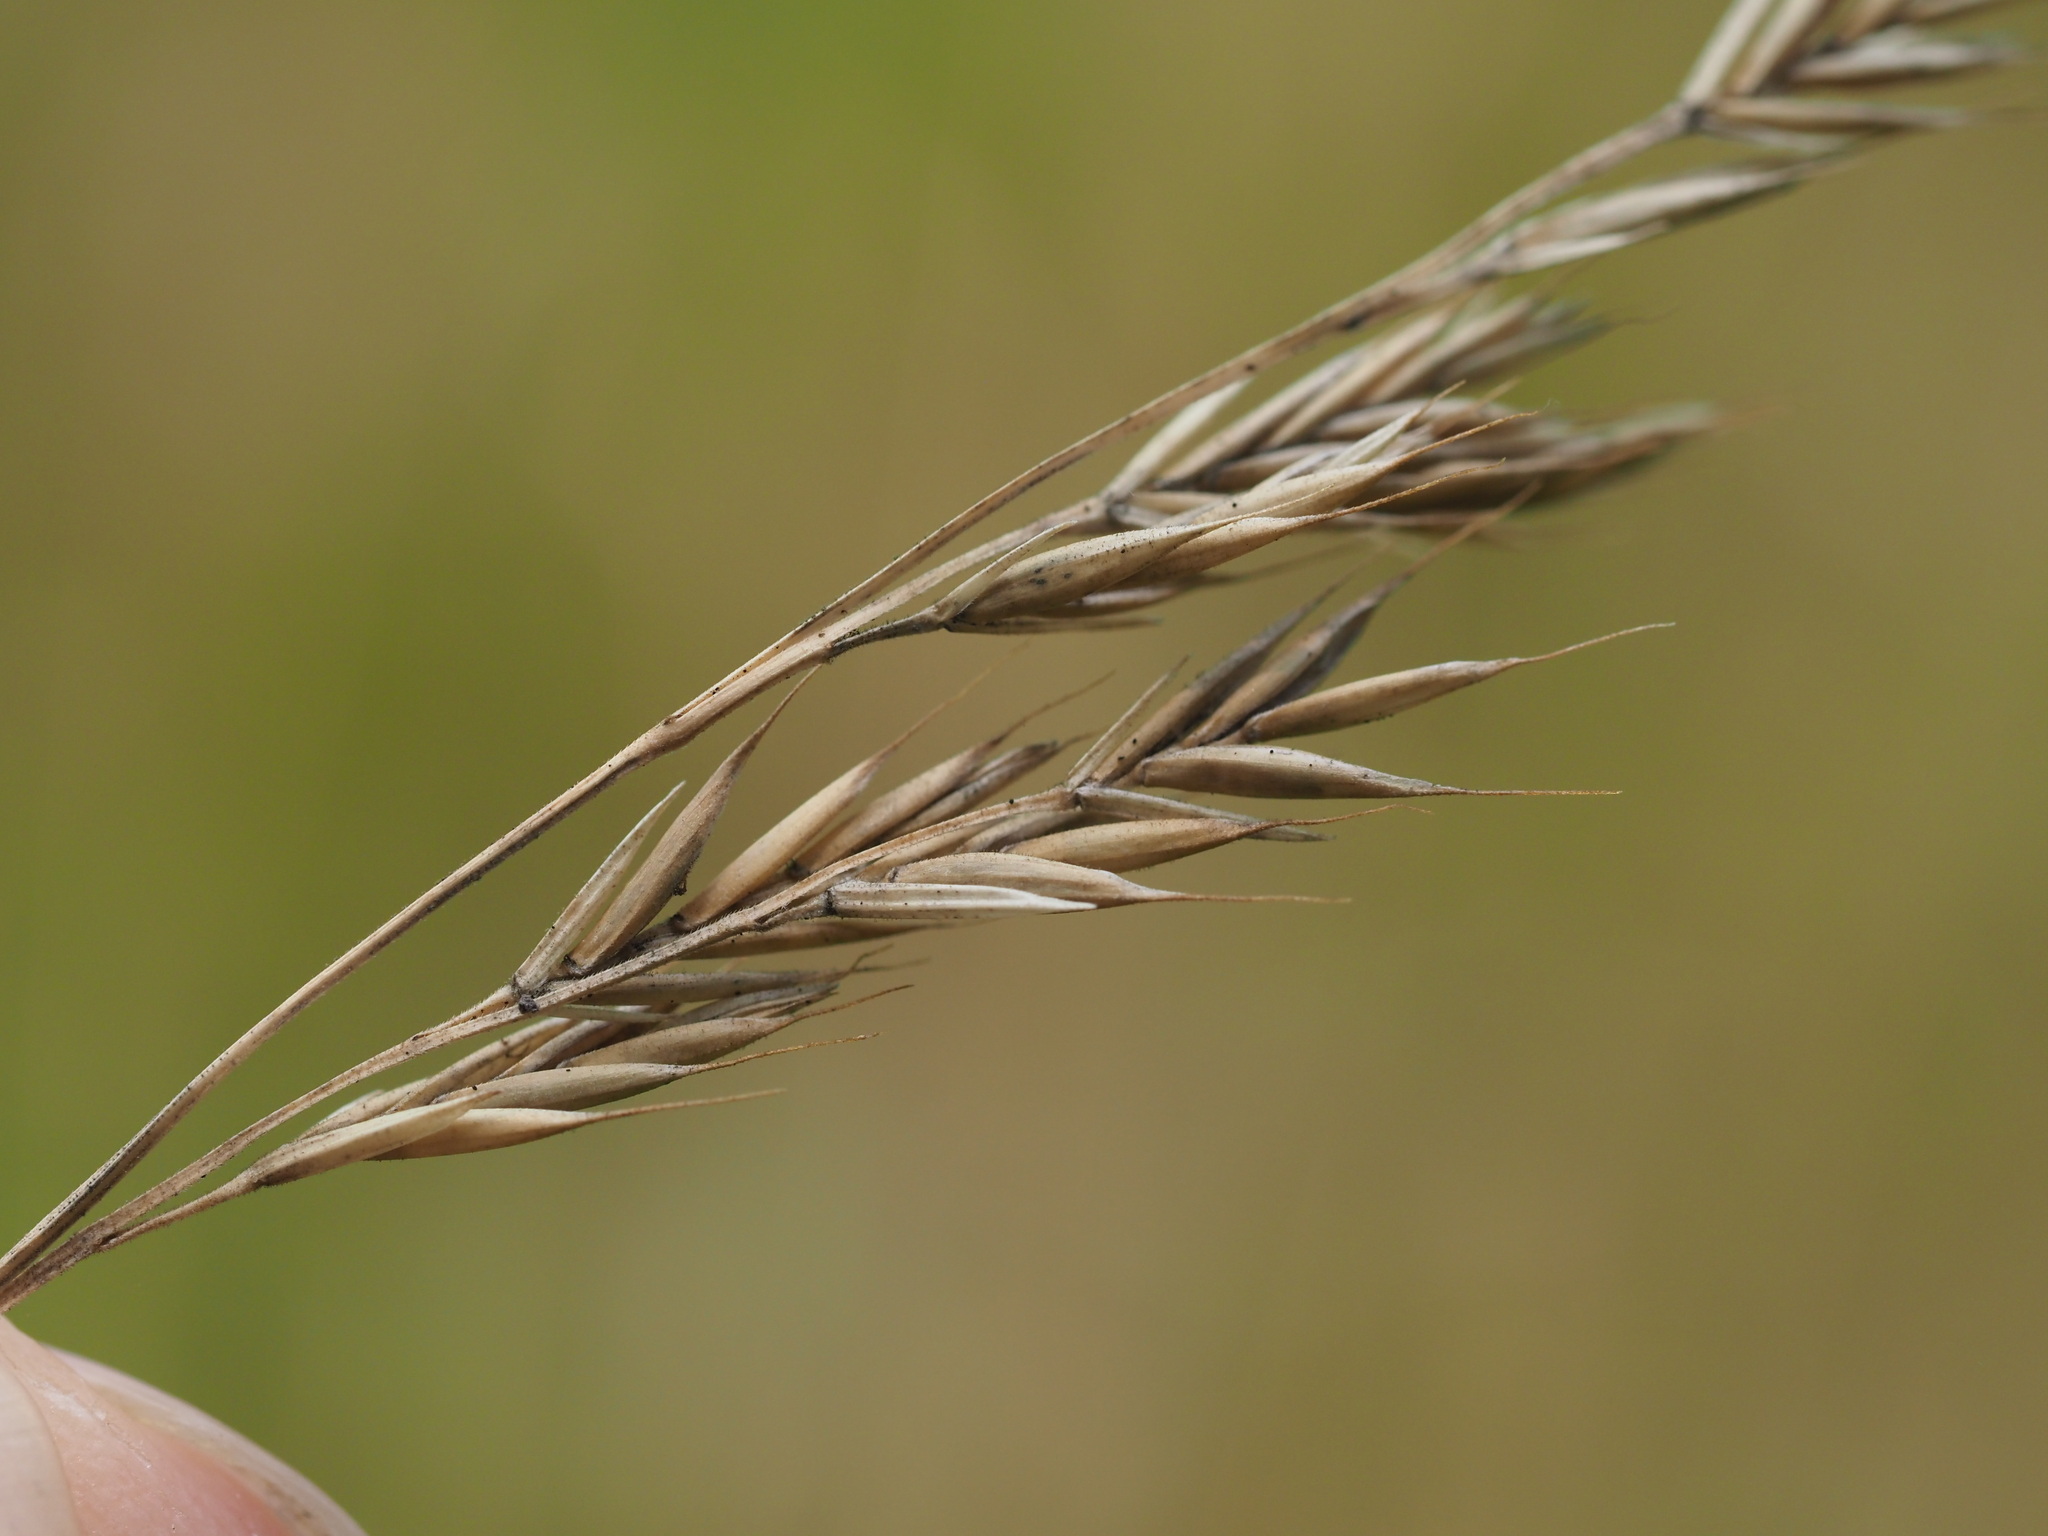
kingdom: Plantae
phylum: Tracheophyta
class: Liliopsida
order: Poales
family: Poaceae
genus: Festuca
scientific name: Festuca rubra
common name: Red fescue
